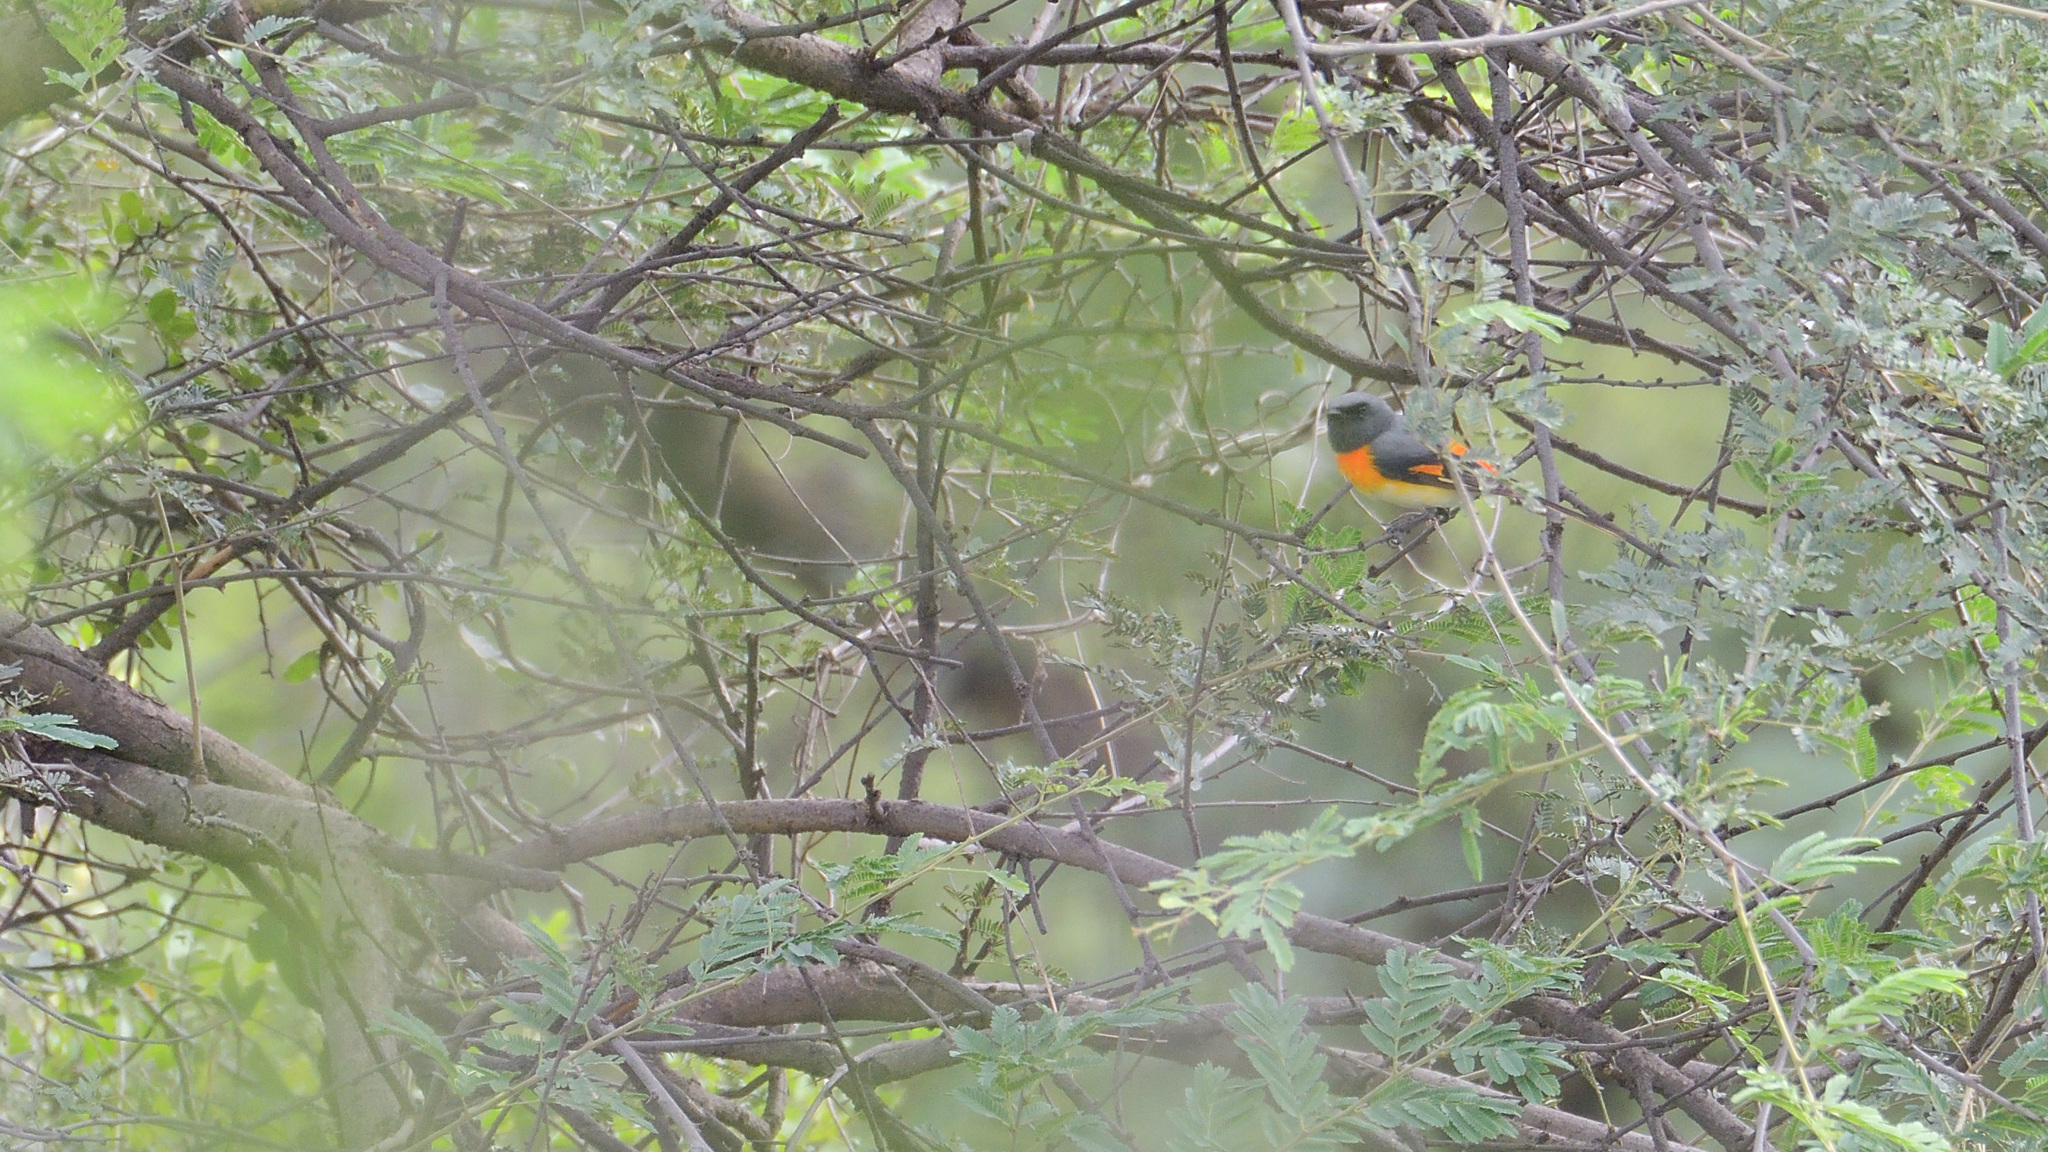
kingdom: Animalia
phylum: Chordata
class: Aves
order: Passeriformes
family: Campephagidae
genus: Pericrocotus
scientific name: Pericrocotus cinnamomeus
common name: Small minivet
